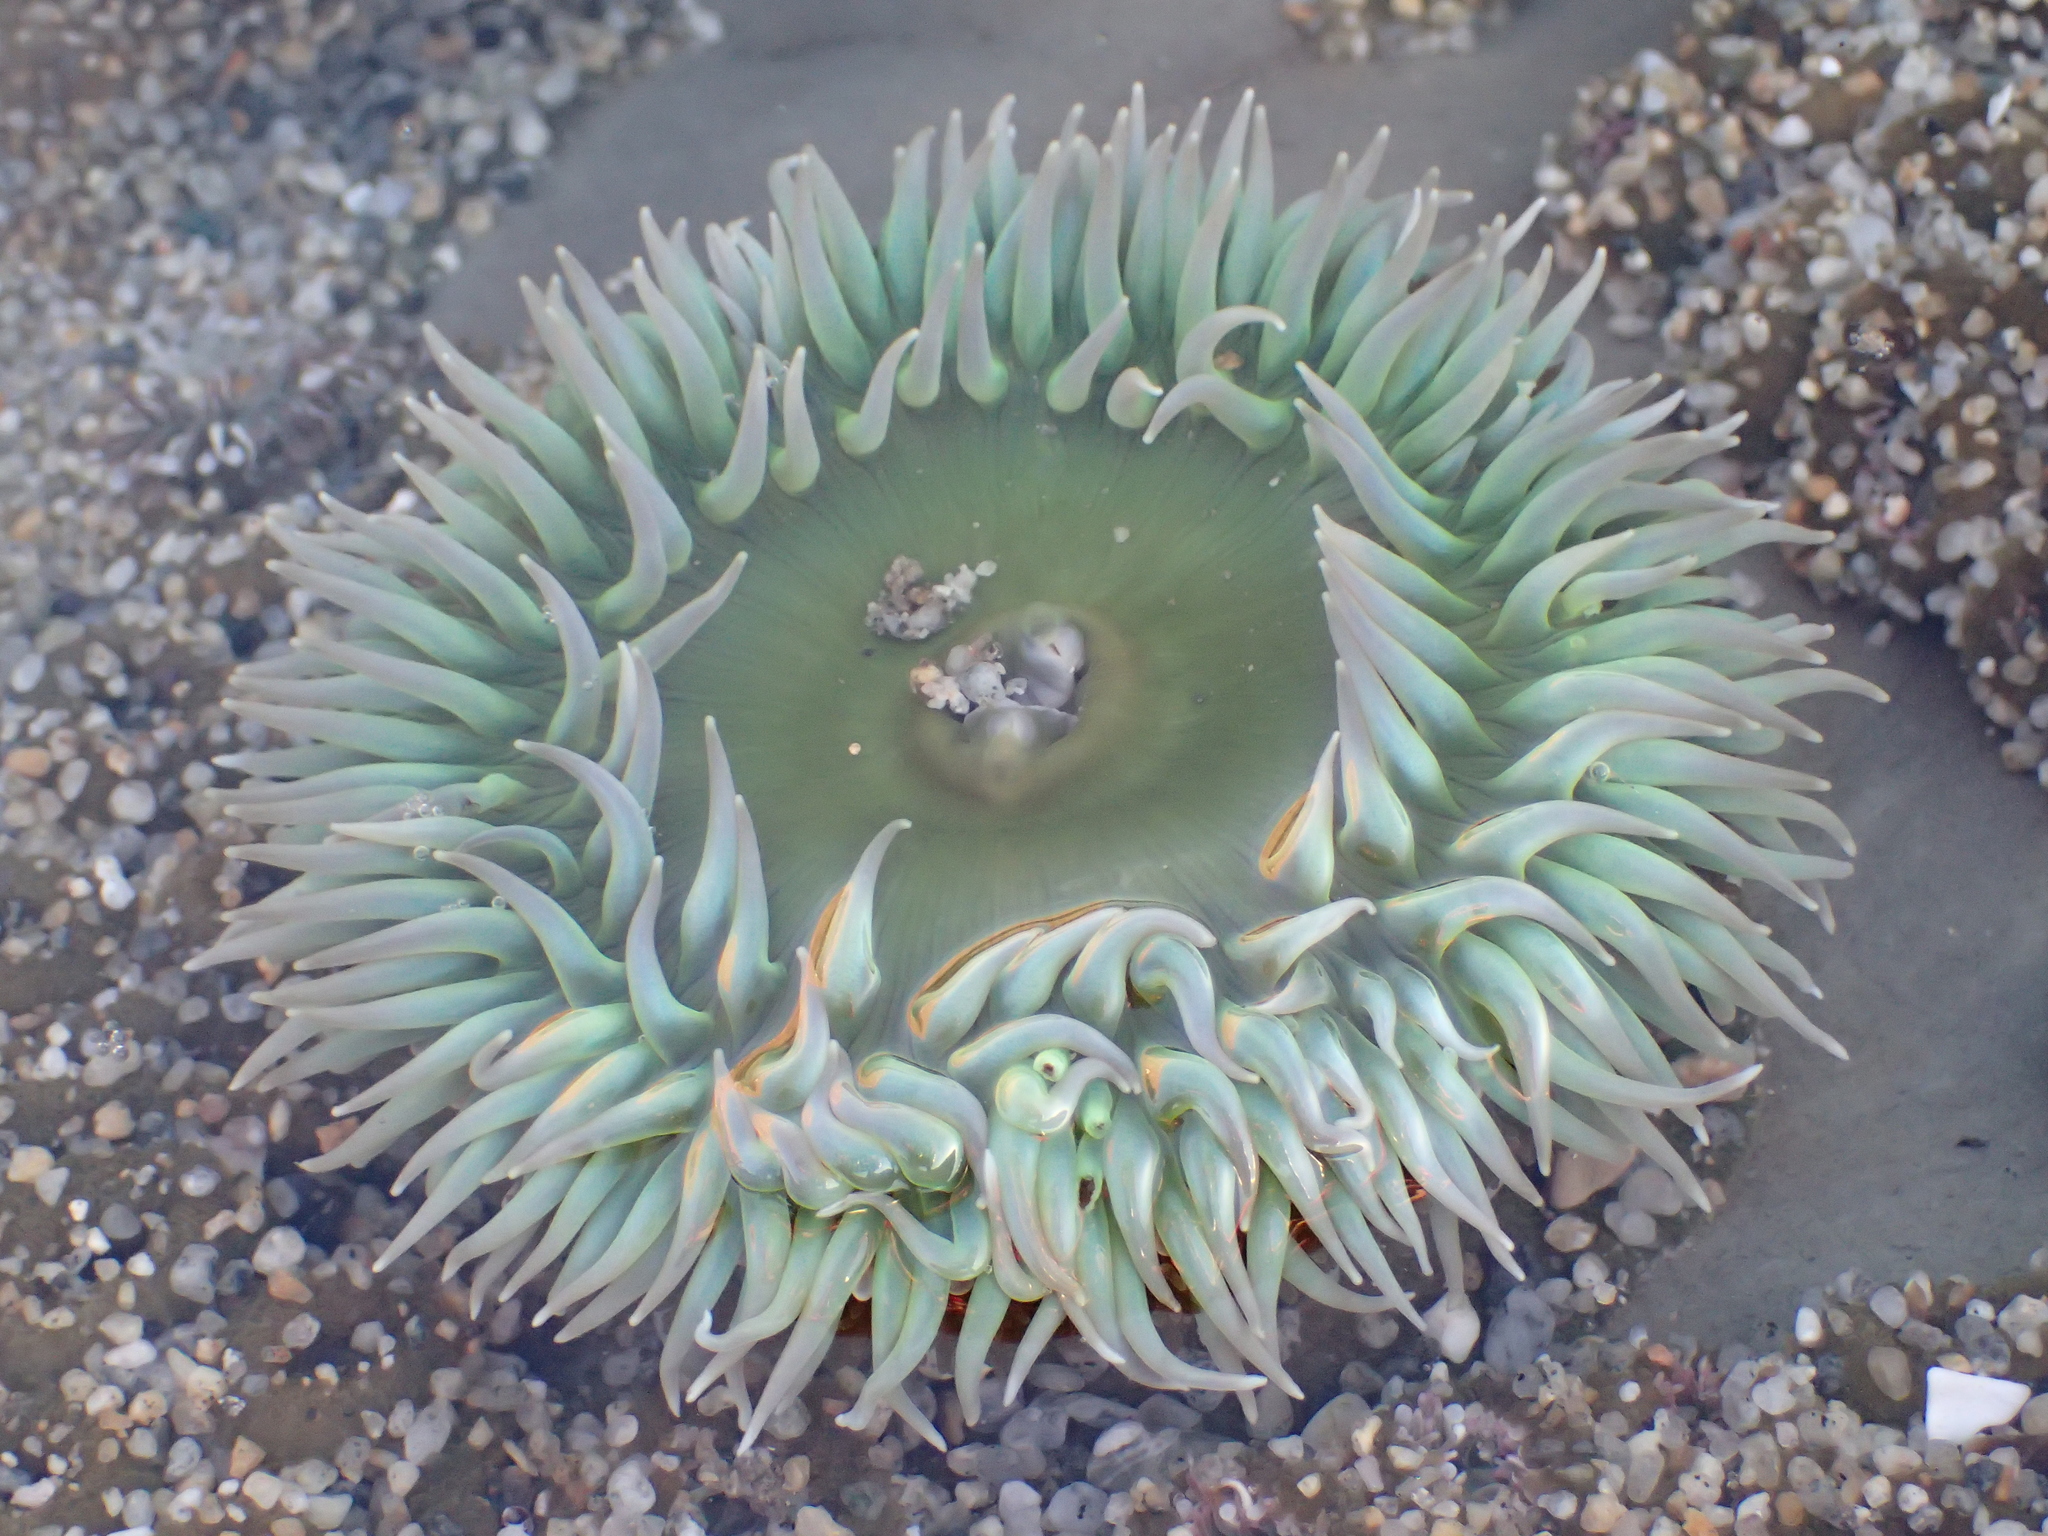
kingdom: Animalia
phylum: Cnidaria
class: Anthozoa
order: Actiniaria
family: Actiniidae
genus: Anthopleura
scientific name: Anthopleura xanthogrammica
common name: Giant green anemone
